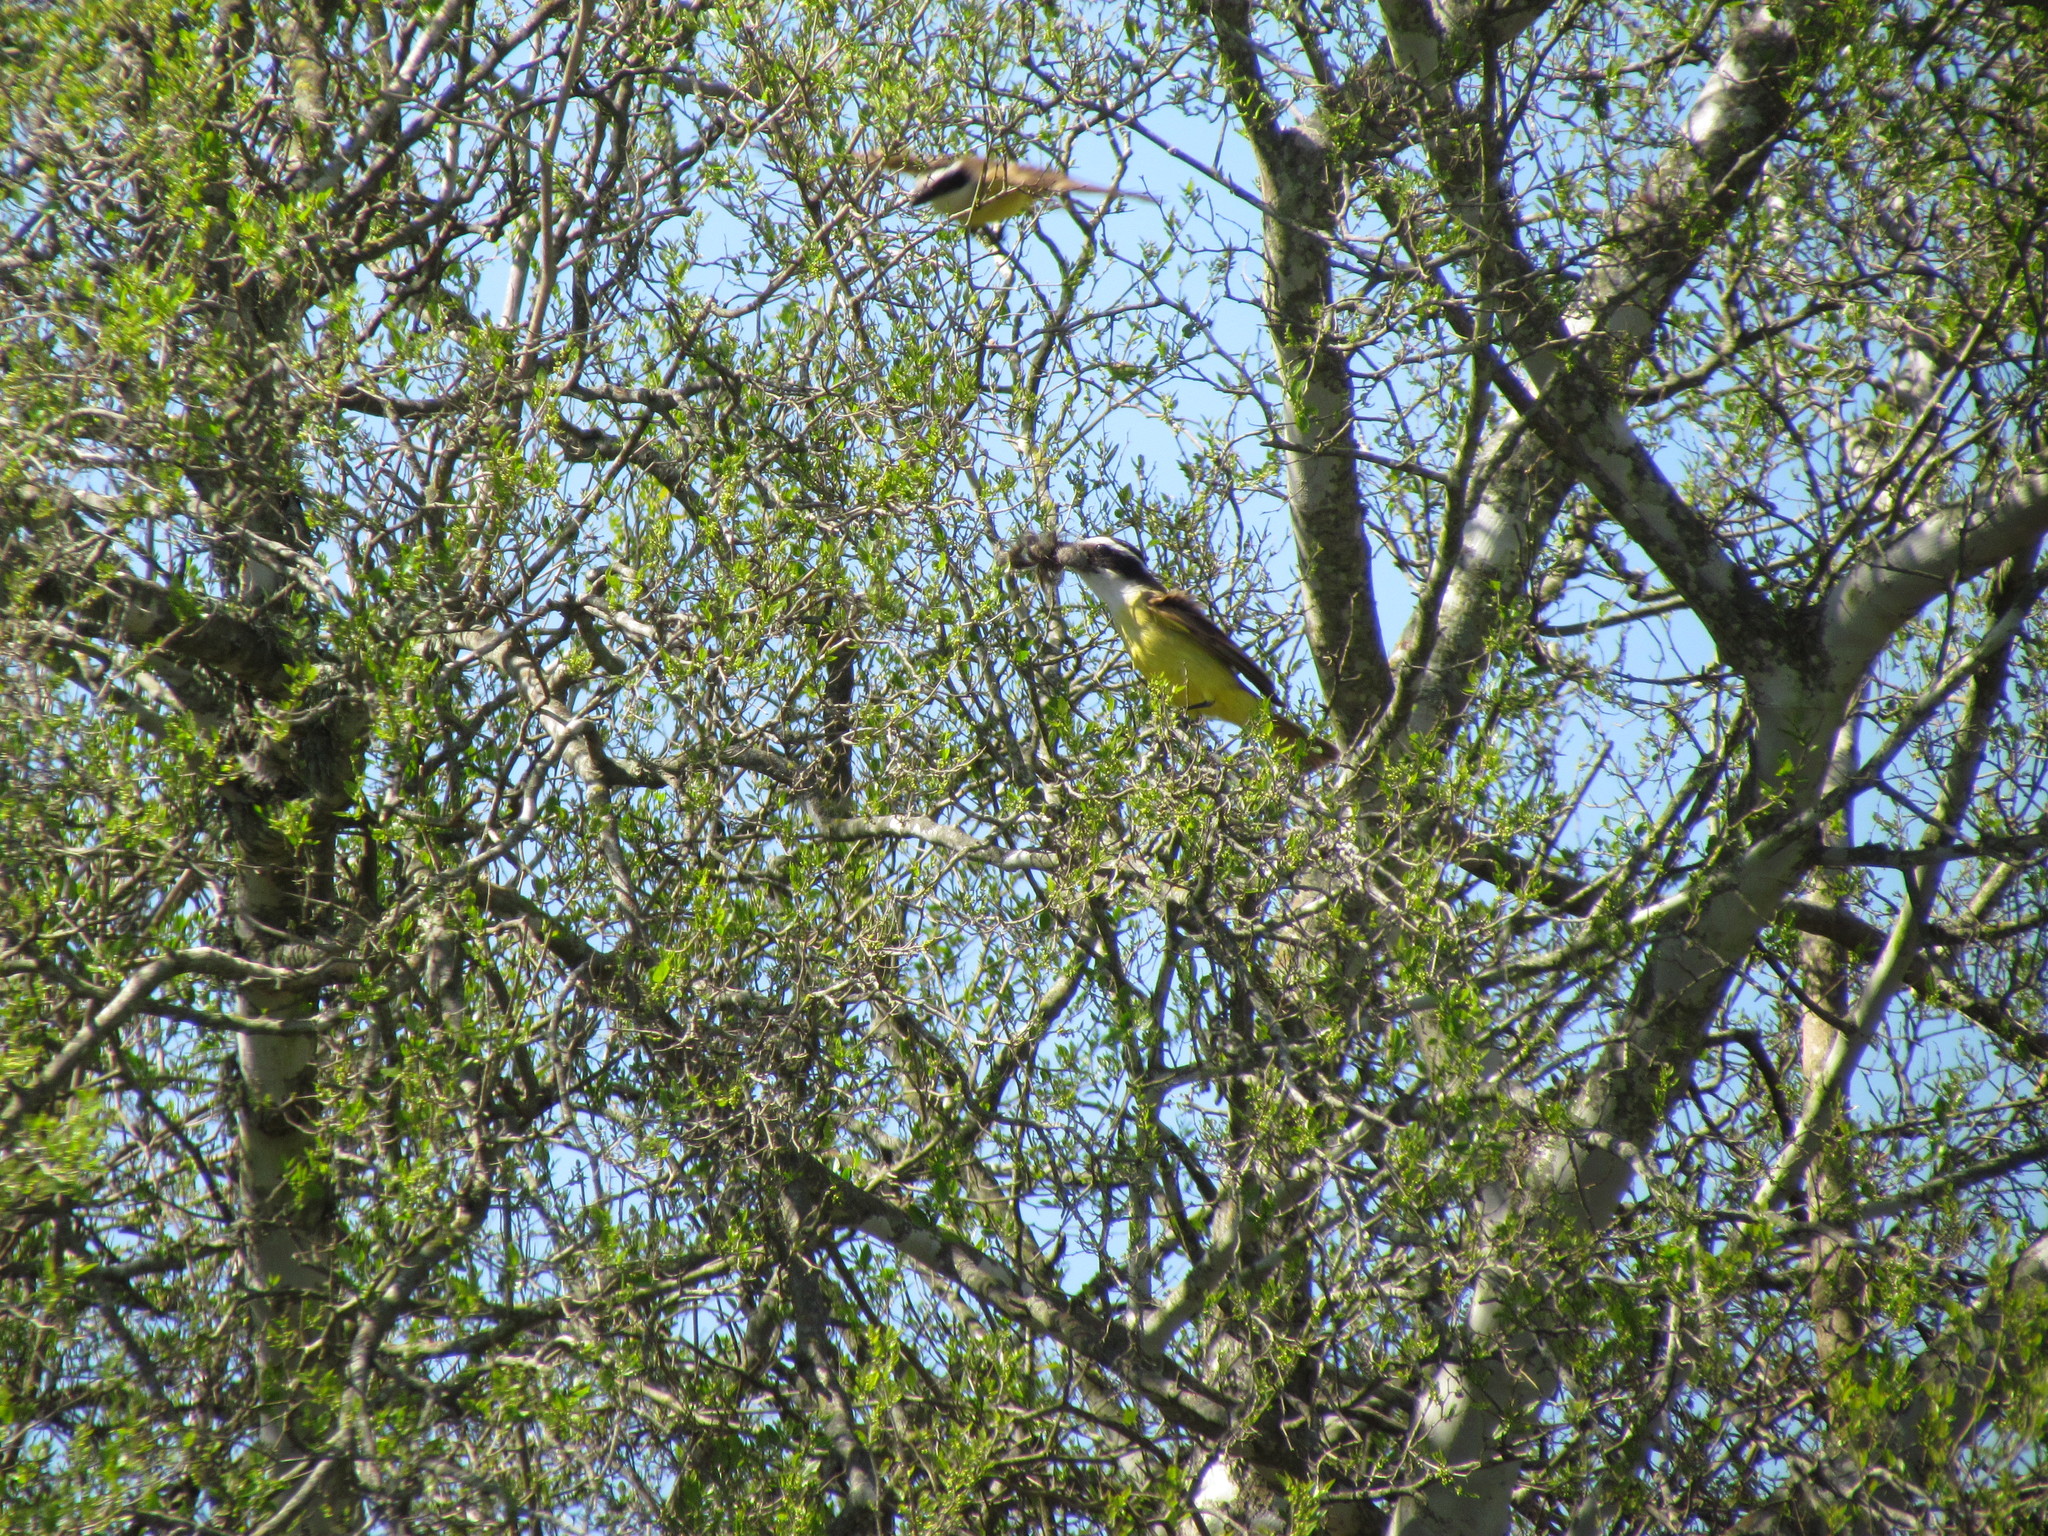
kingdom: Animalia
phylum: Chordata
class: Aves
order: Passeriformes
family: Tyrannidae
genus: Pitangus
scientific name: Pitangus sulphuratus
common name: Great kiskadee
